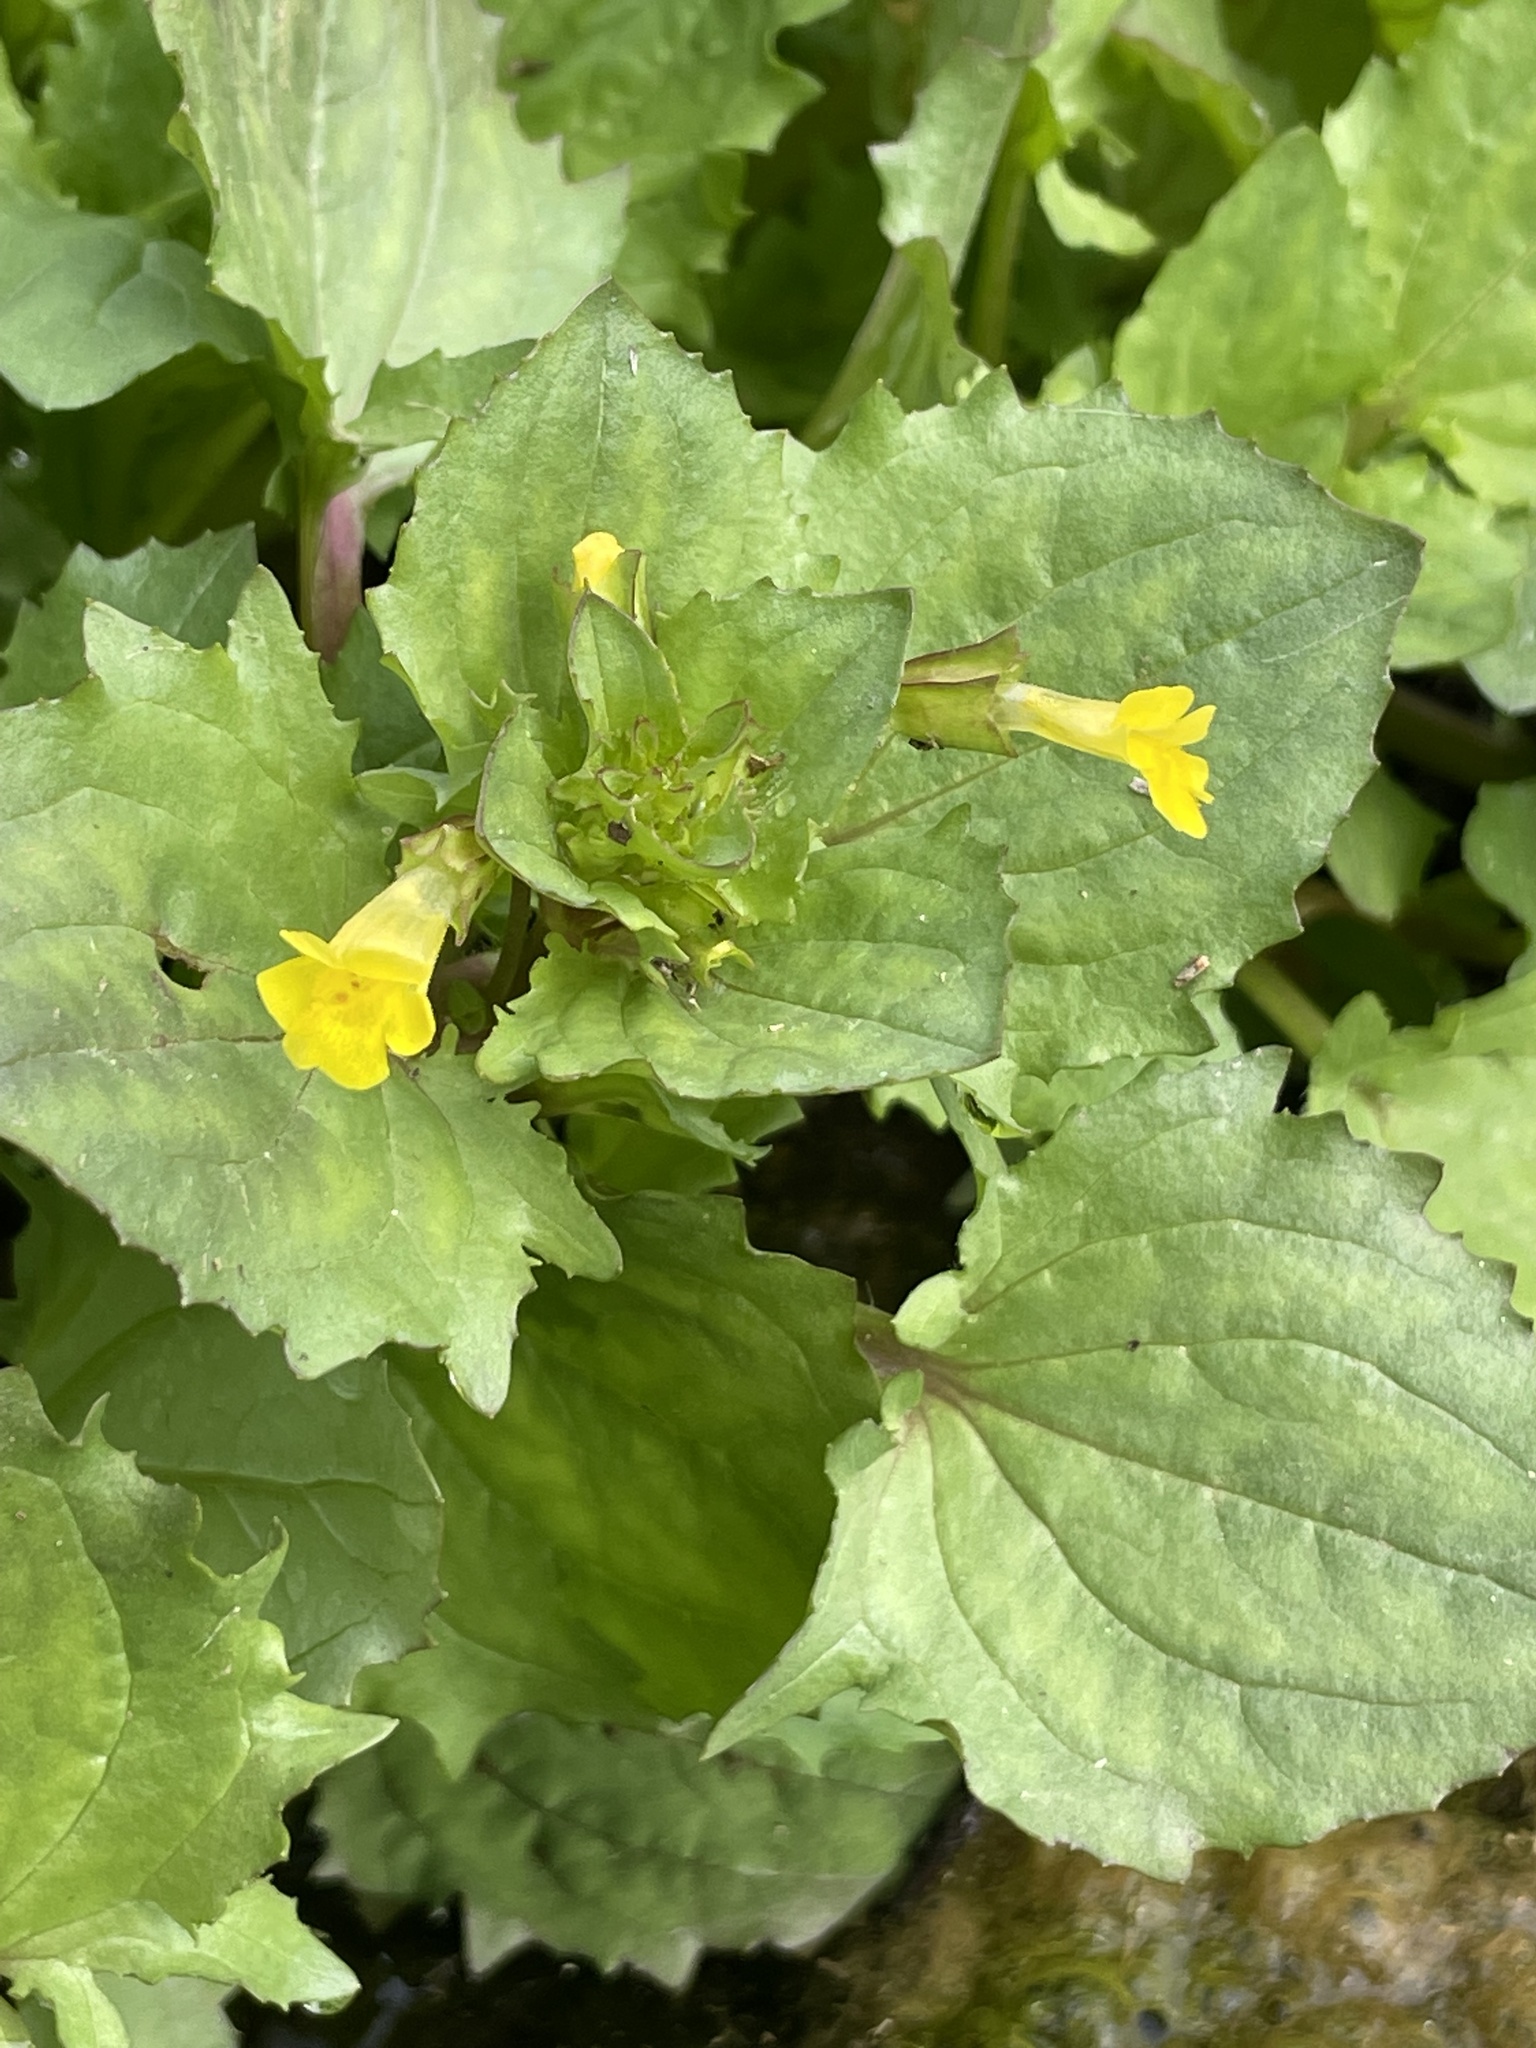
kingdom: Plantae
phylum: Tracheophyta
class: Magnoliopsida
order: Lamiales
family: Phrymaceae
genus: Erythranthe
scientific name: Erythranthe inamoena
